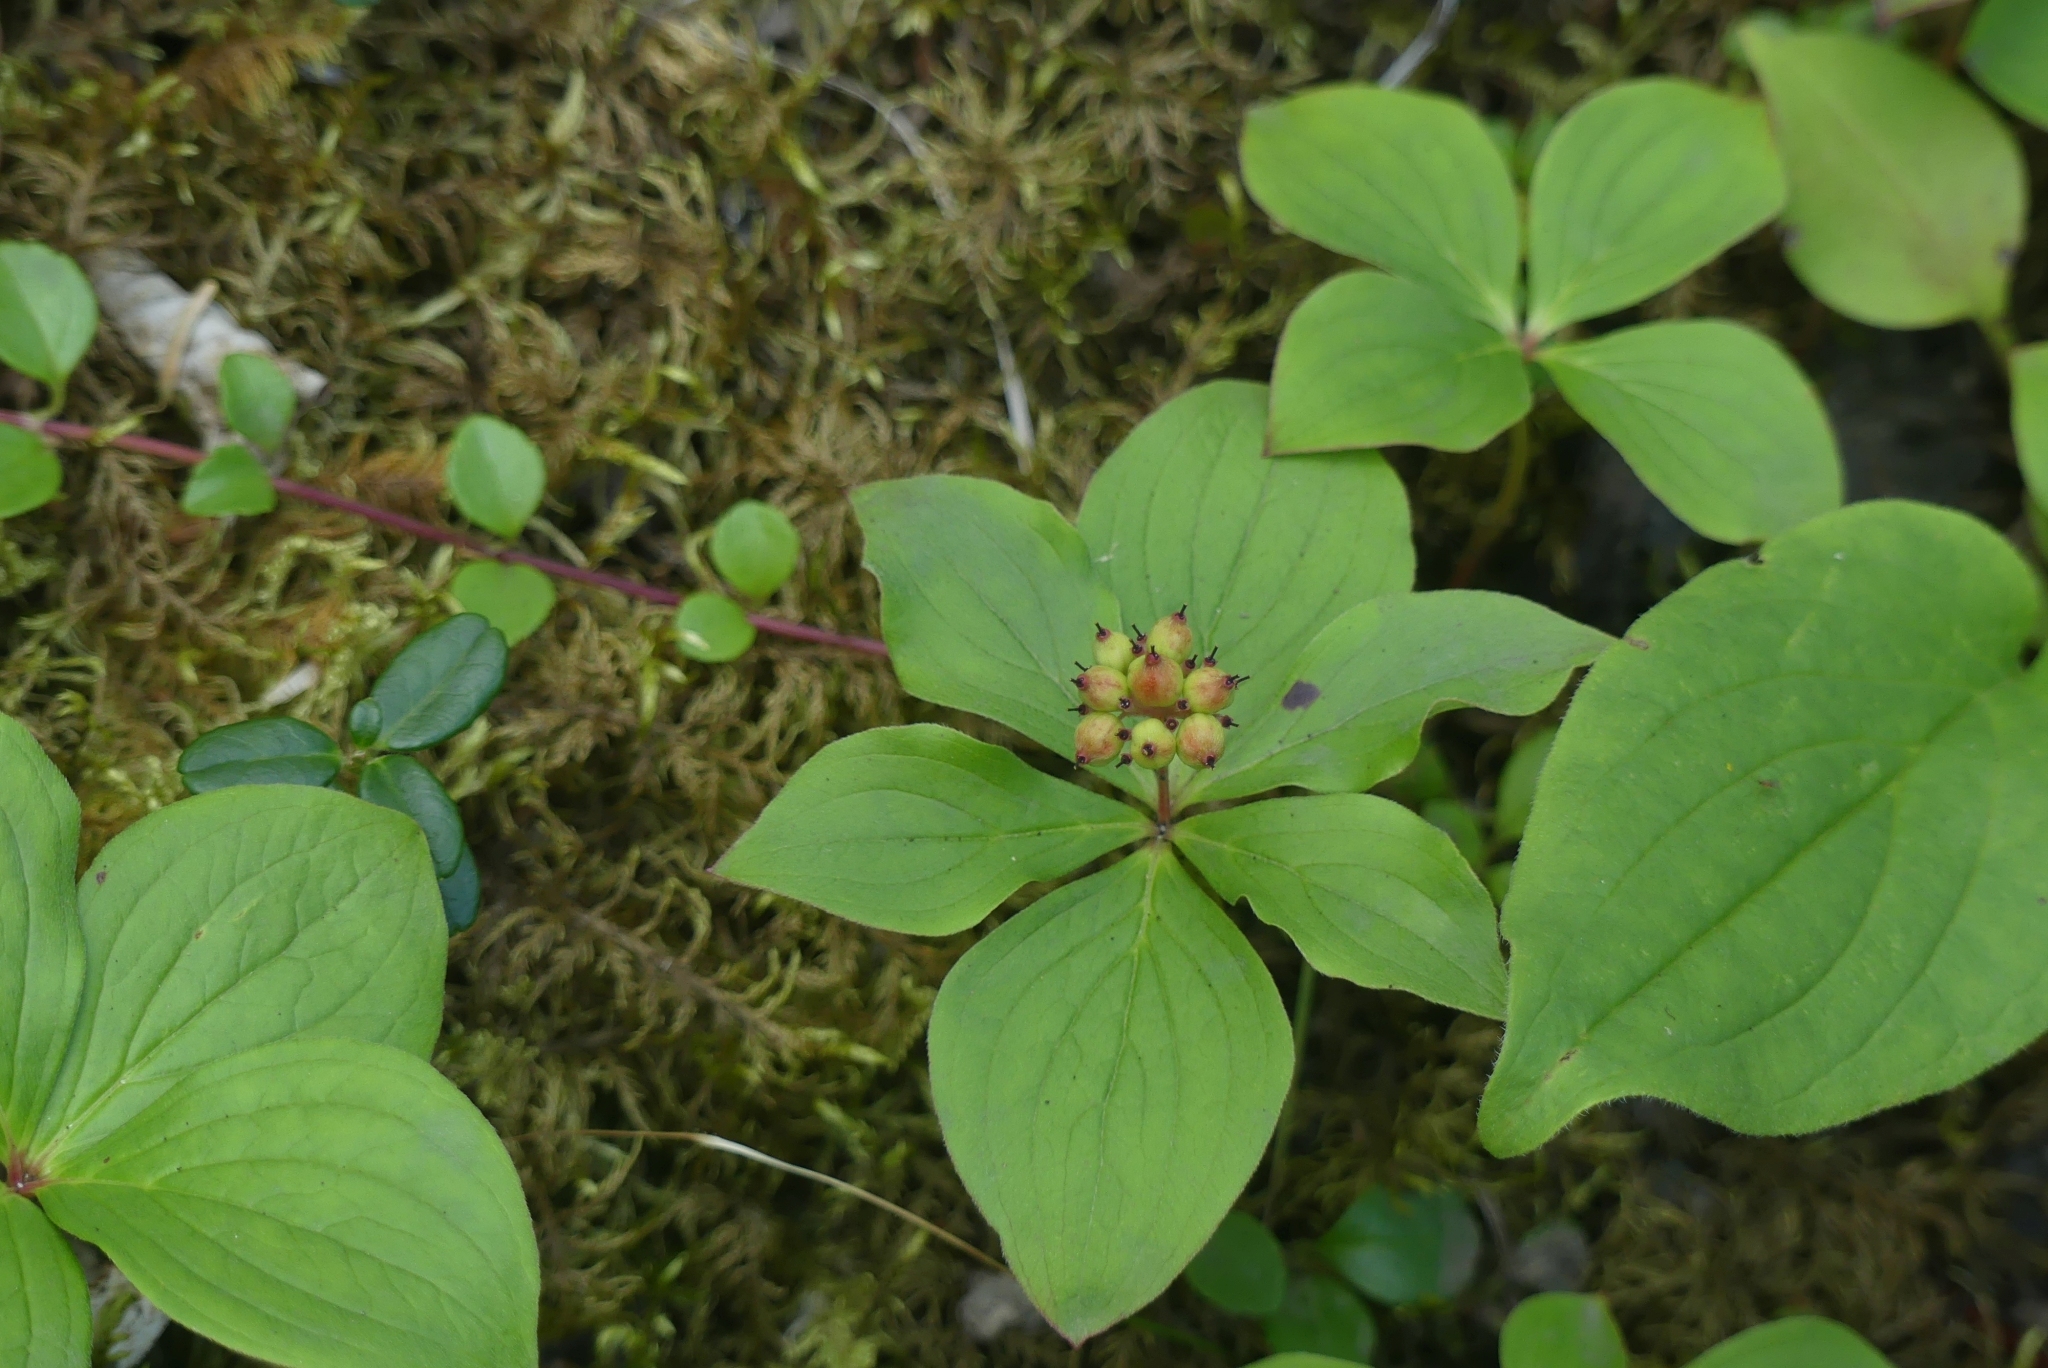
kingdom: Plantae
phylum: Tracheophyta
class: Magnoliopsida
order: Cornales
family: Cornaceae
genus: Cornus
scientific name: Cornus canadensis
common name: Creeping dogwood
